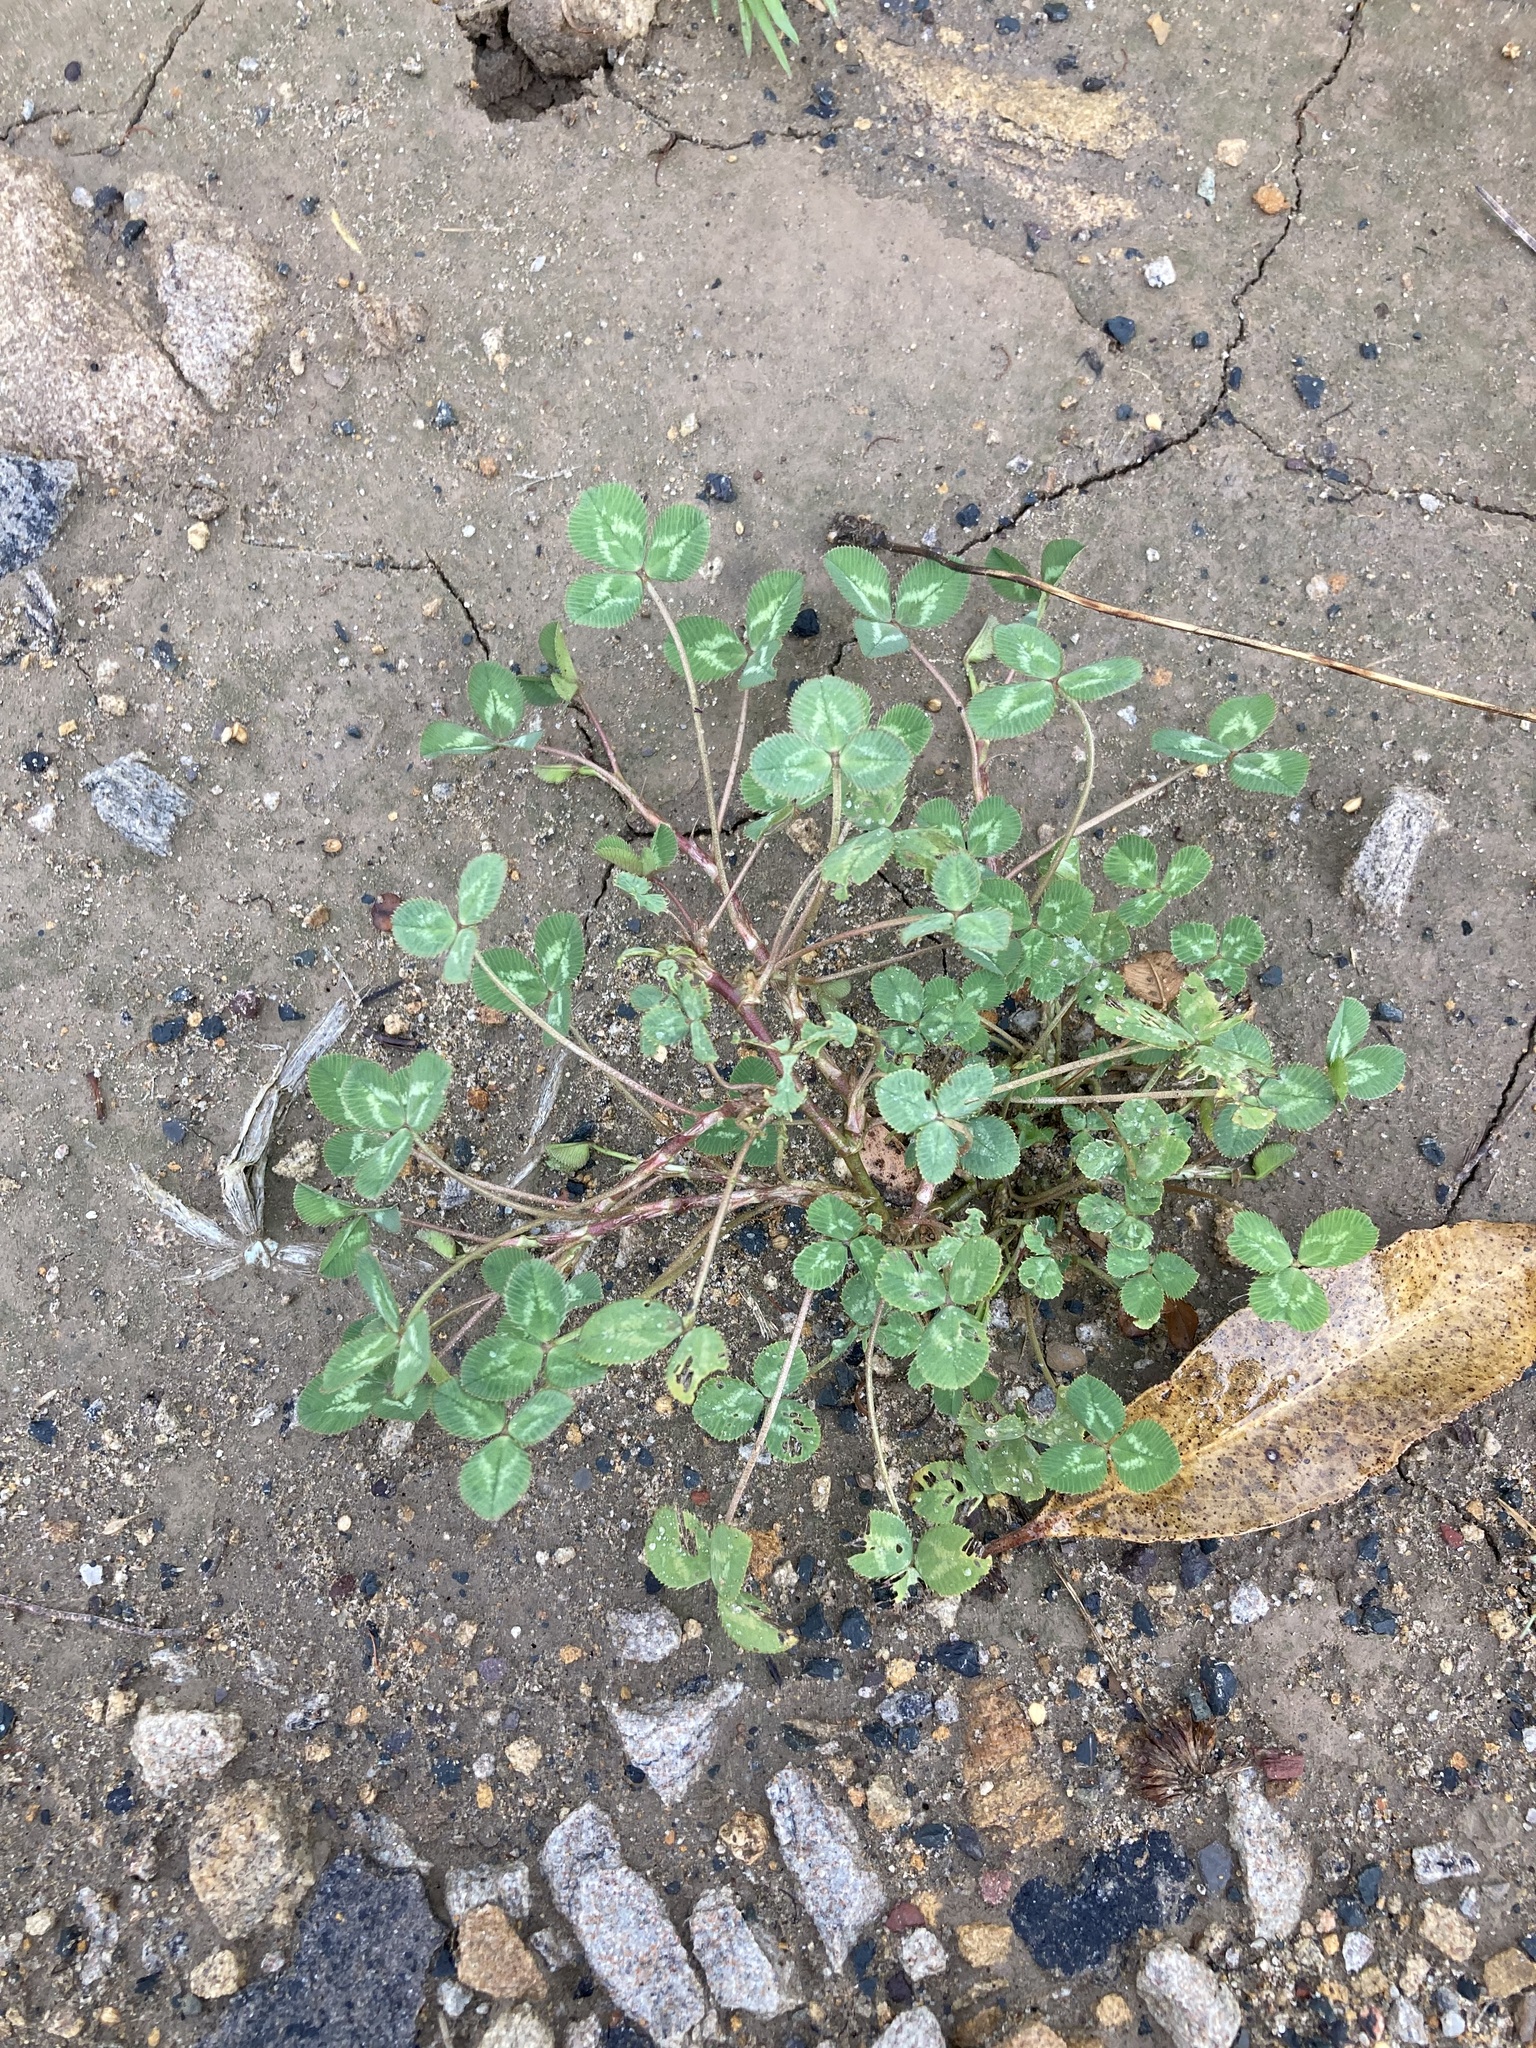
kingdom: Plantae
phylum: Tracheophyta
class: Magnoliopsida
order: Fabales
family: Fabaceae
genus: Trifolium
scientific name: Trifolium repens
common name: White clover
